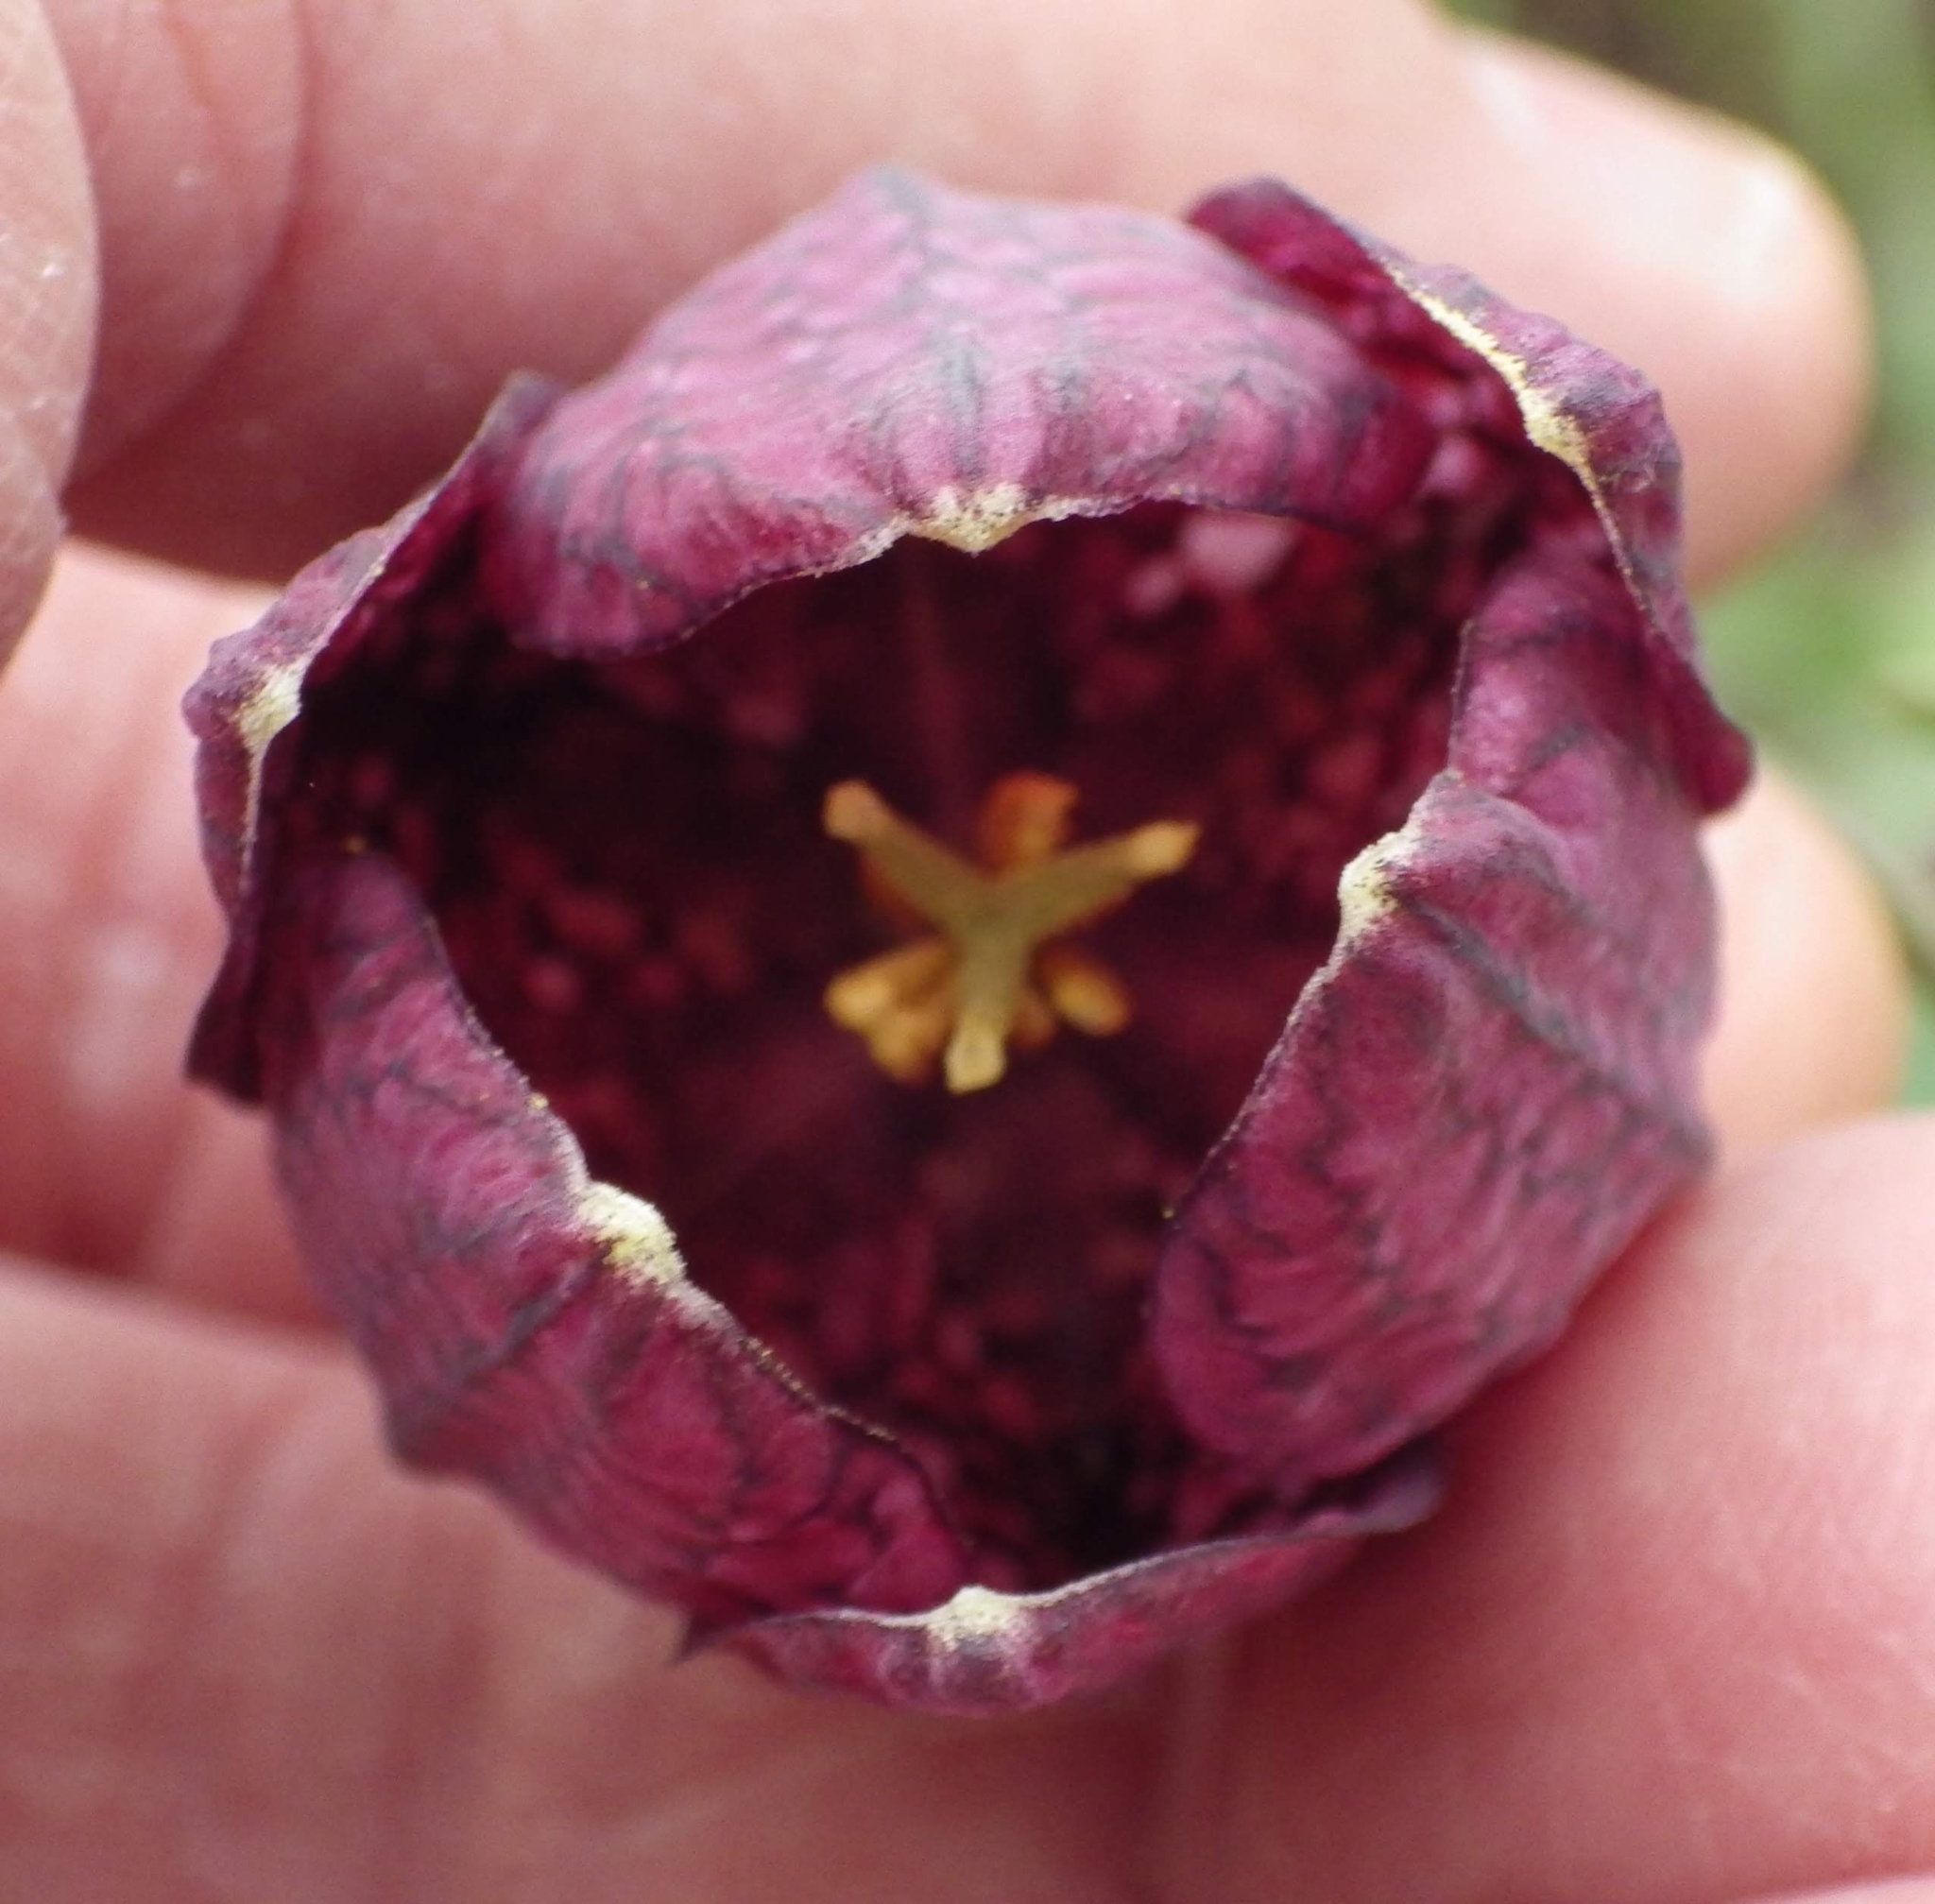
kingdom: Plantae
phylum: Tracheophyta
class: Liliopsida
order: Liliales
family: Liliaceae
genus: Fritillaria
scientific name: Fritillaria meleagris
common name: Fritillary
